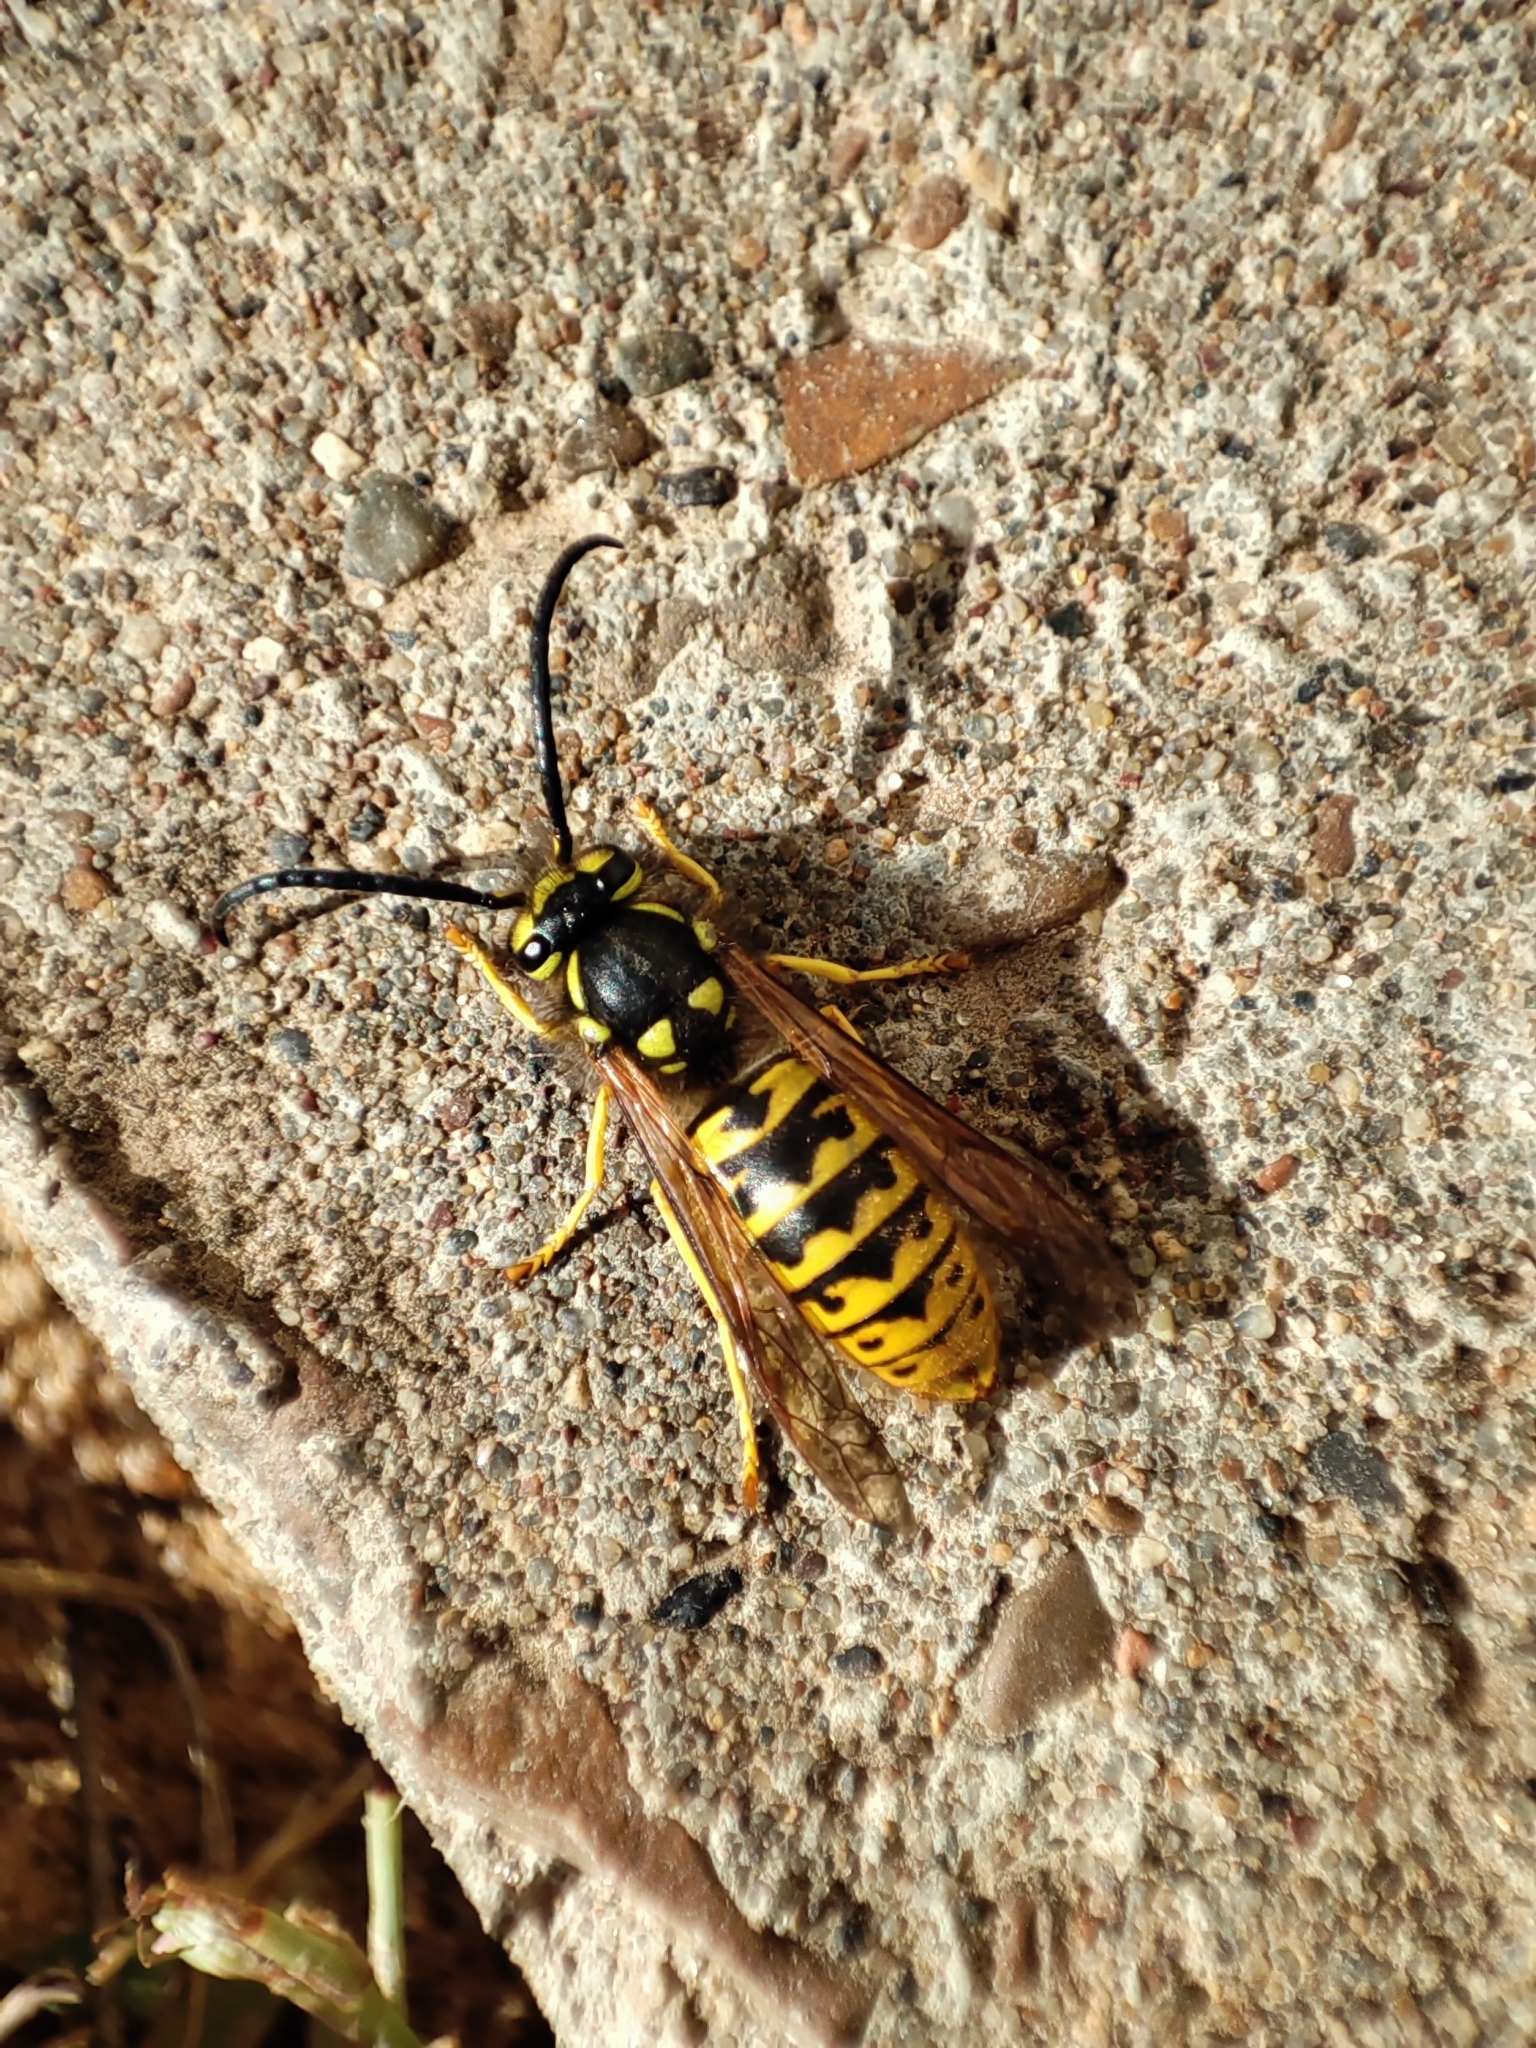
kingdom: Animalia
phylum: Arthropoda
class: Insecta
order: Hymenoptera
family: Vespidae
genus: Vespula
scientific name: Vespula germanica
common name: German wasp
